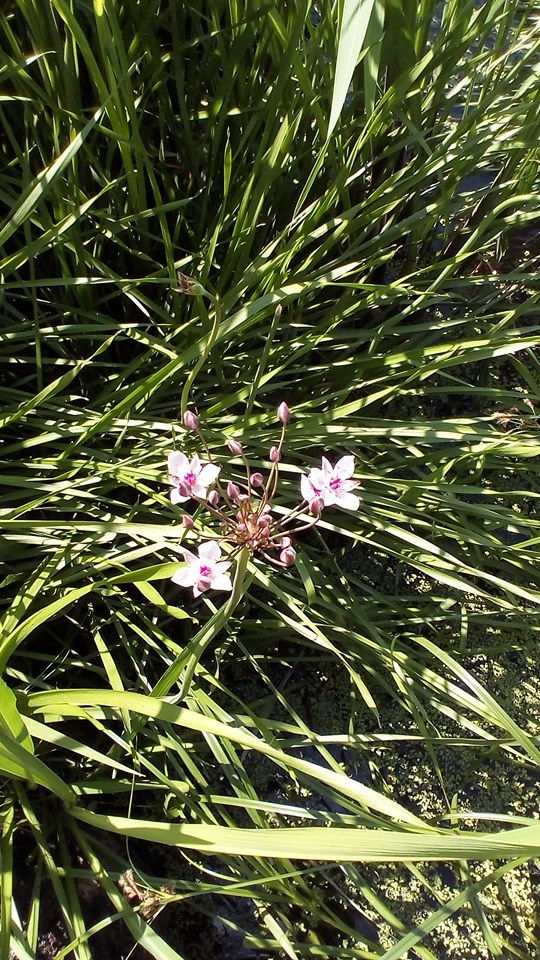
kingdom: Plantae
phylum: Tracheophyta
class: Liliopsida
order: Alismatales
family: Butomaceae
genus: Butomus
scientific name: Butomus umbellatus
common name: Flowering-rush
